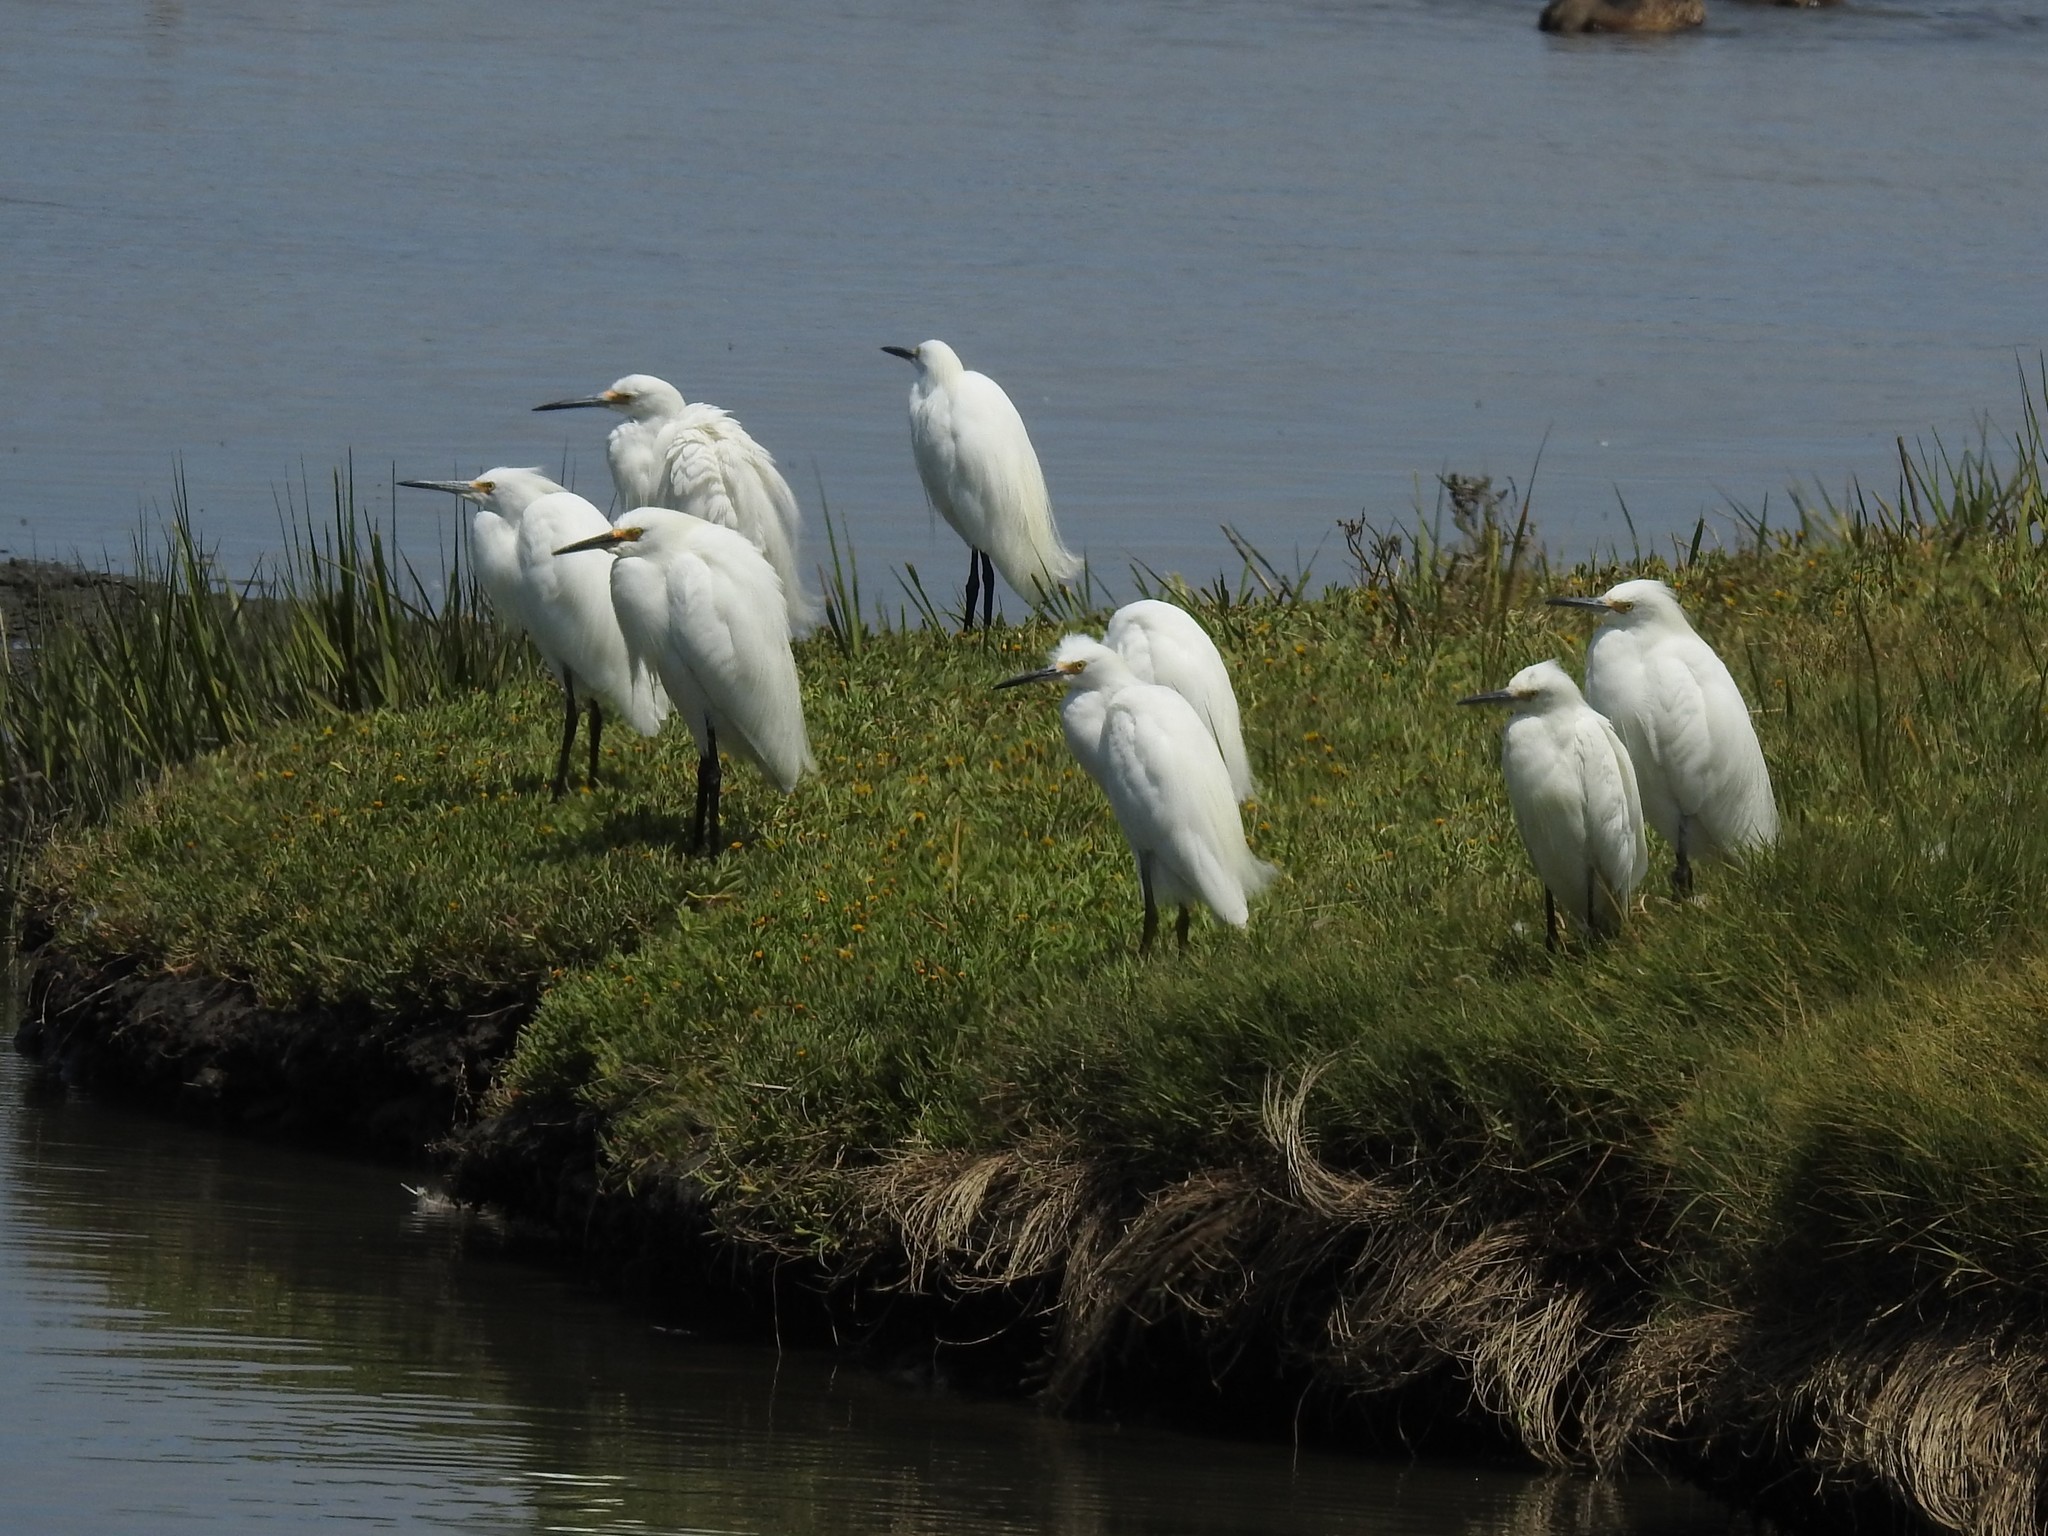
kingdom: Animalia
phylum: Chordata
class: Aves
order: Pelecaniformes
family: Ardeidae
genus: Egretta
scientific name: Egretta thula
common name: Snowy egret
